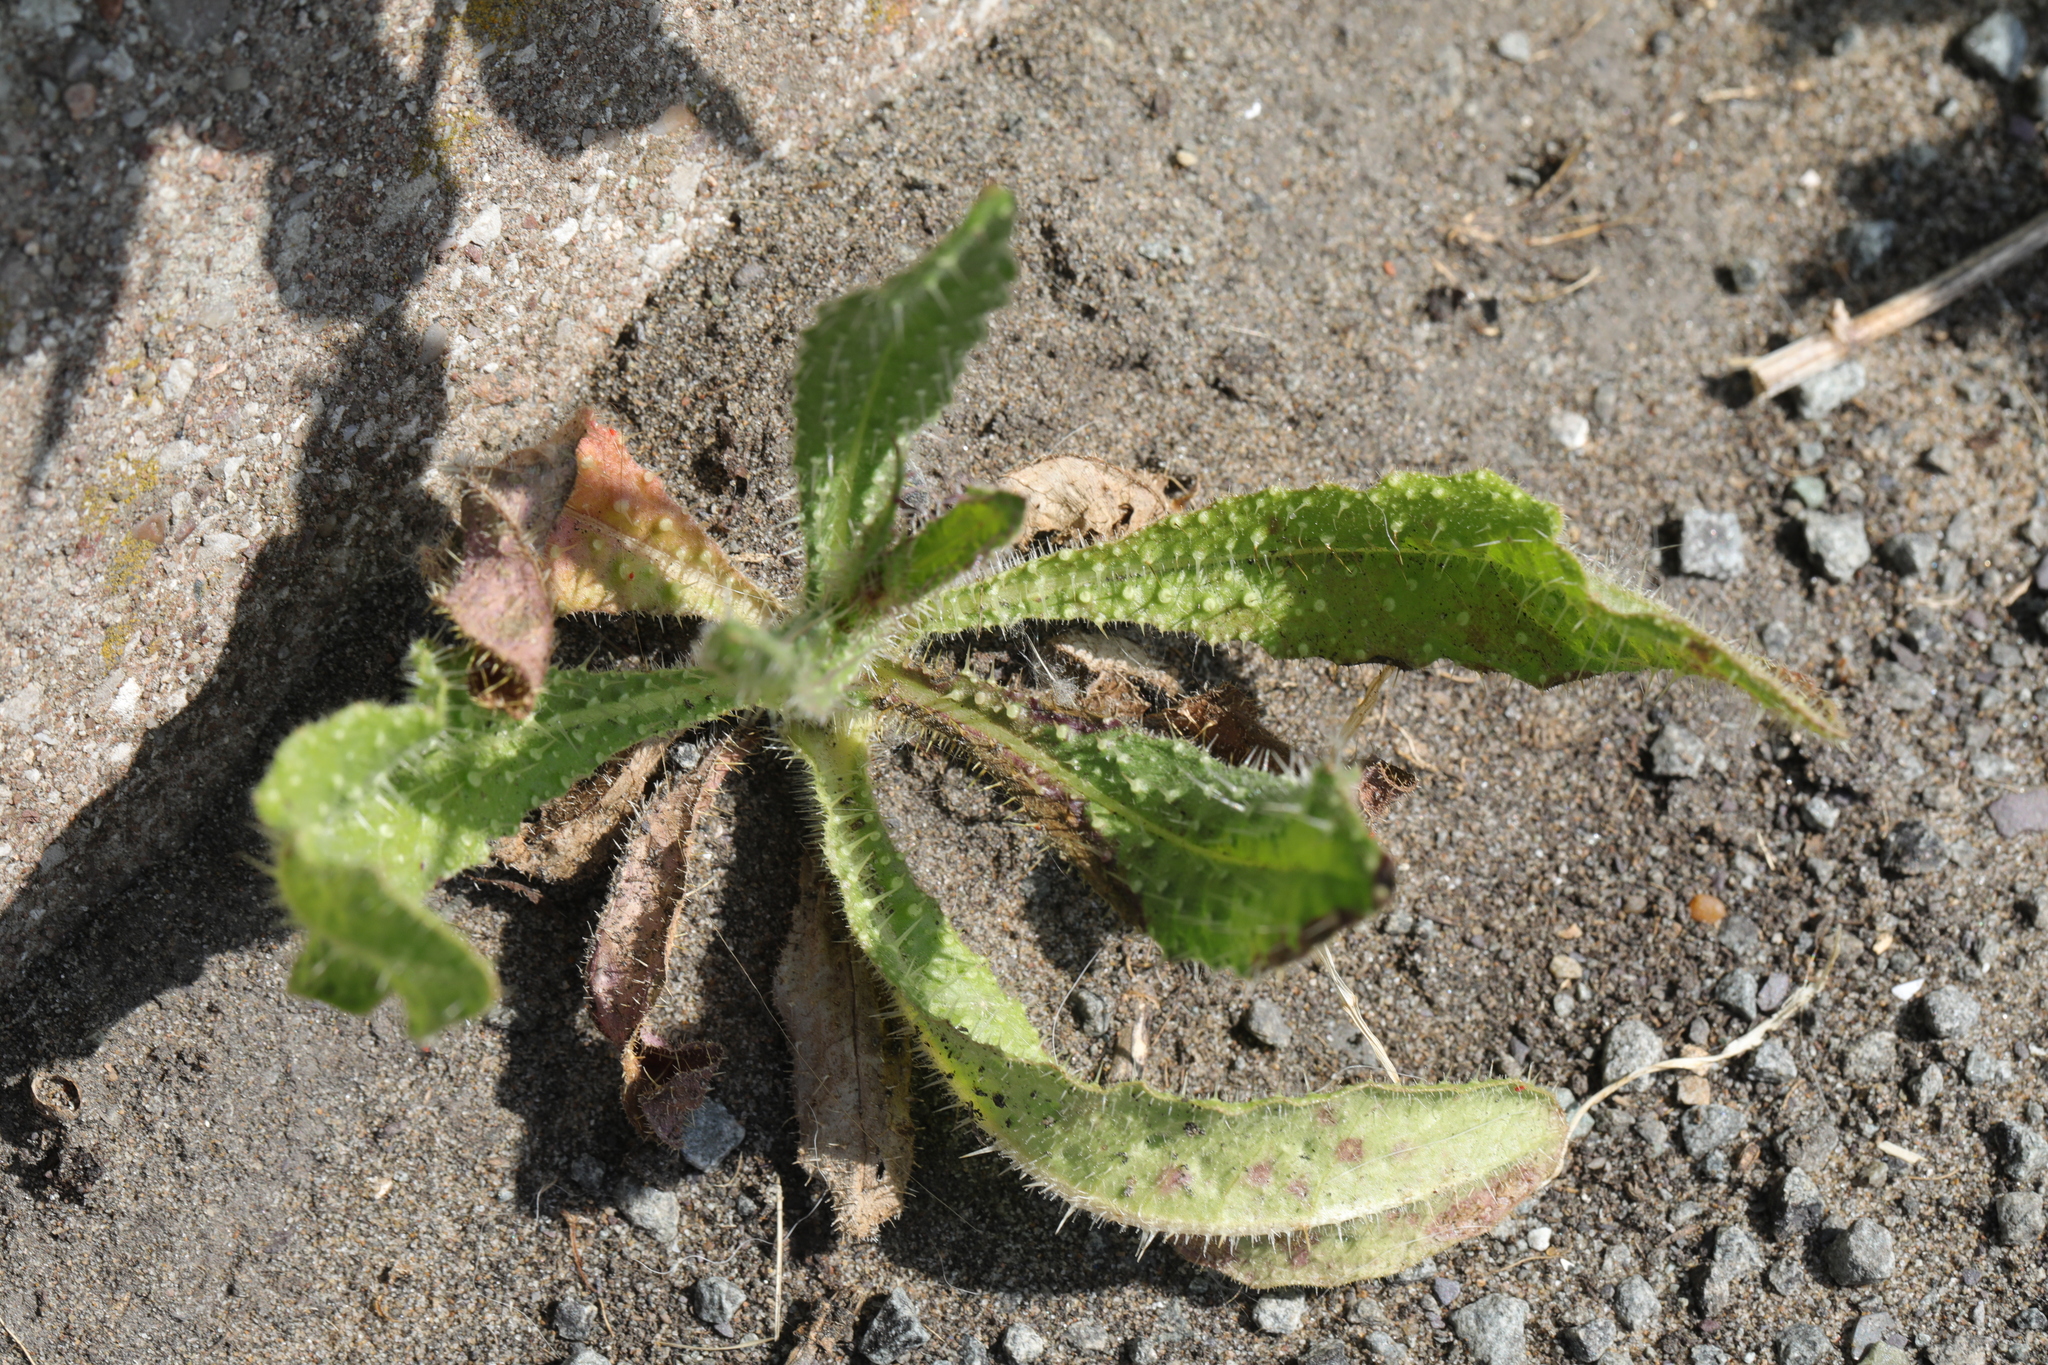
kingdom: Plantae
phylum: Tracheophyta
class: Magnoliopsida
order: Asterales
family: Asteraceae
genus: Helminthotheca
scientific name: Helminthotheca echioides
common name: Ox-tongue
